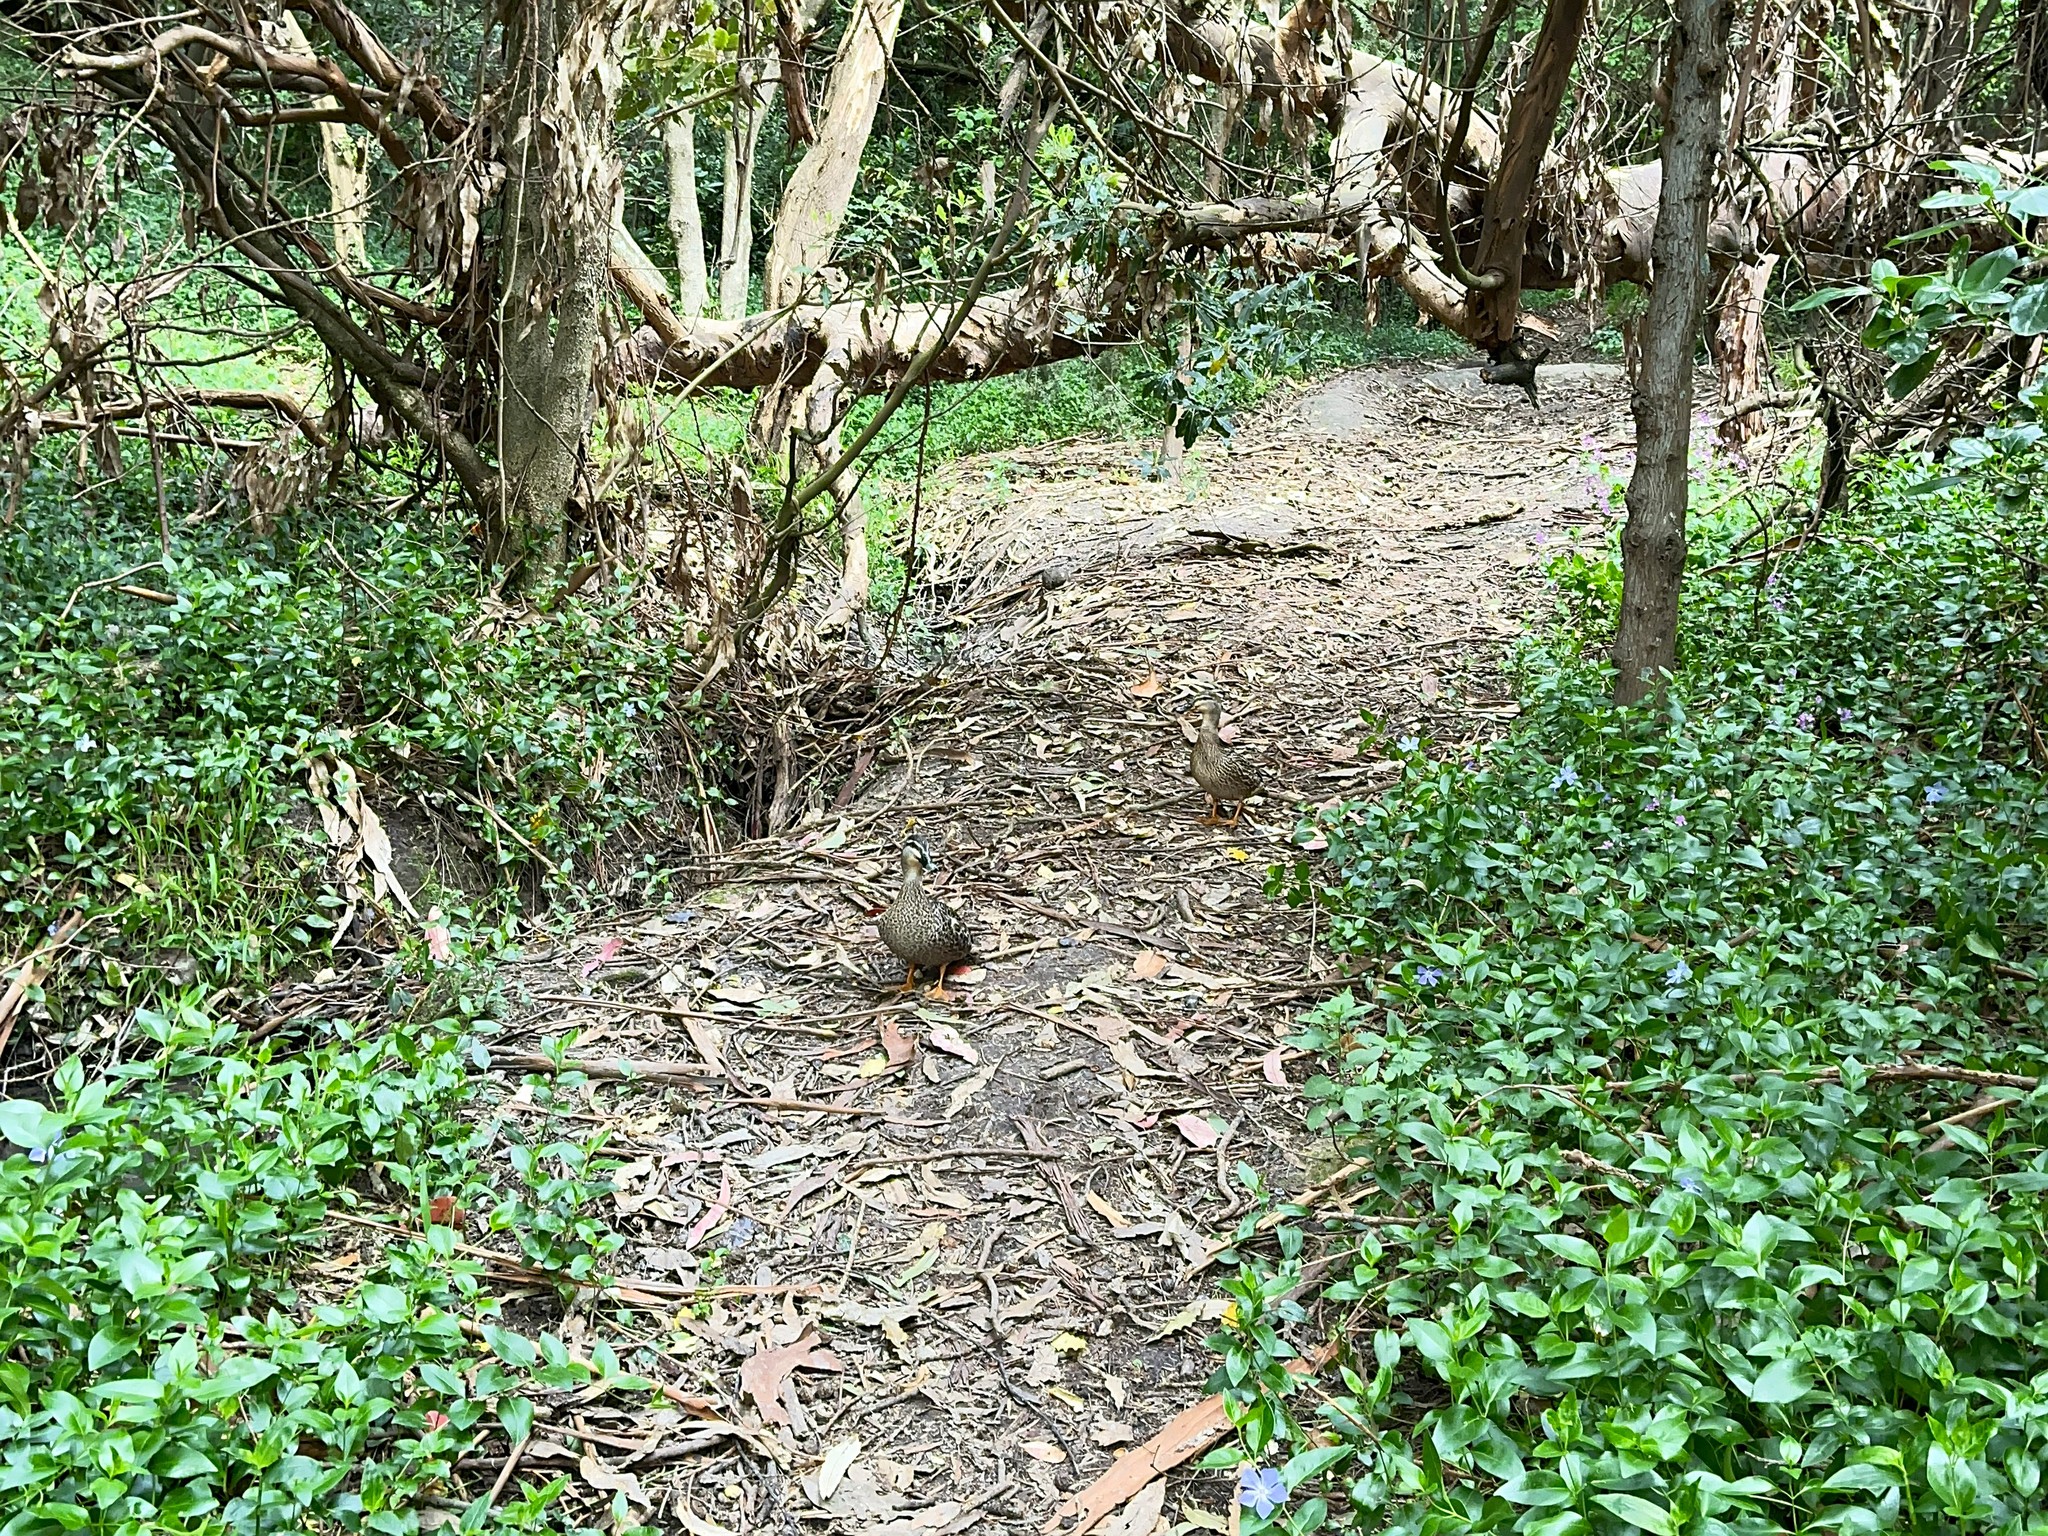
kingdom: Animalia
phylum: Chordata
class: Aves
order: Anseriformes
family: Anatidae
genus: Anas
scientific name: Anas
